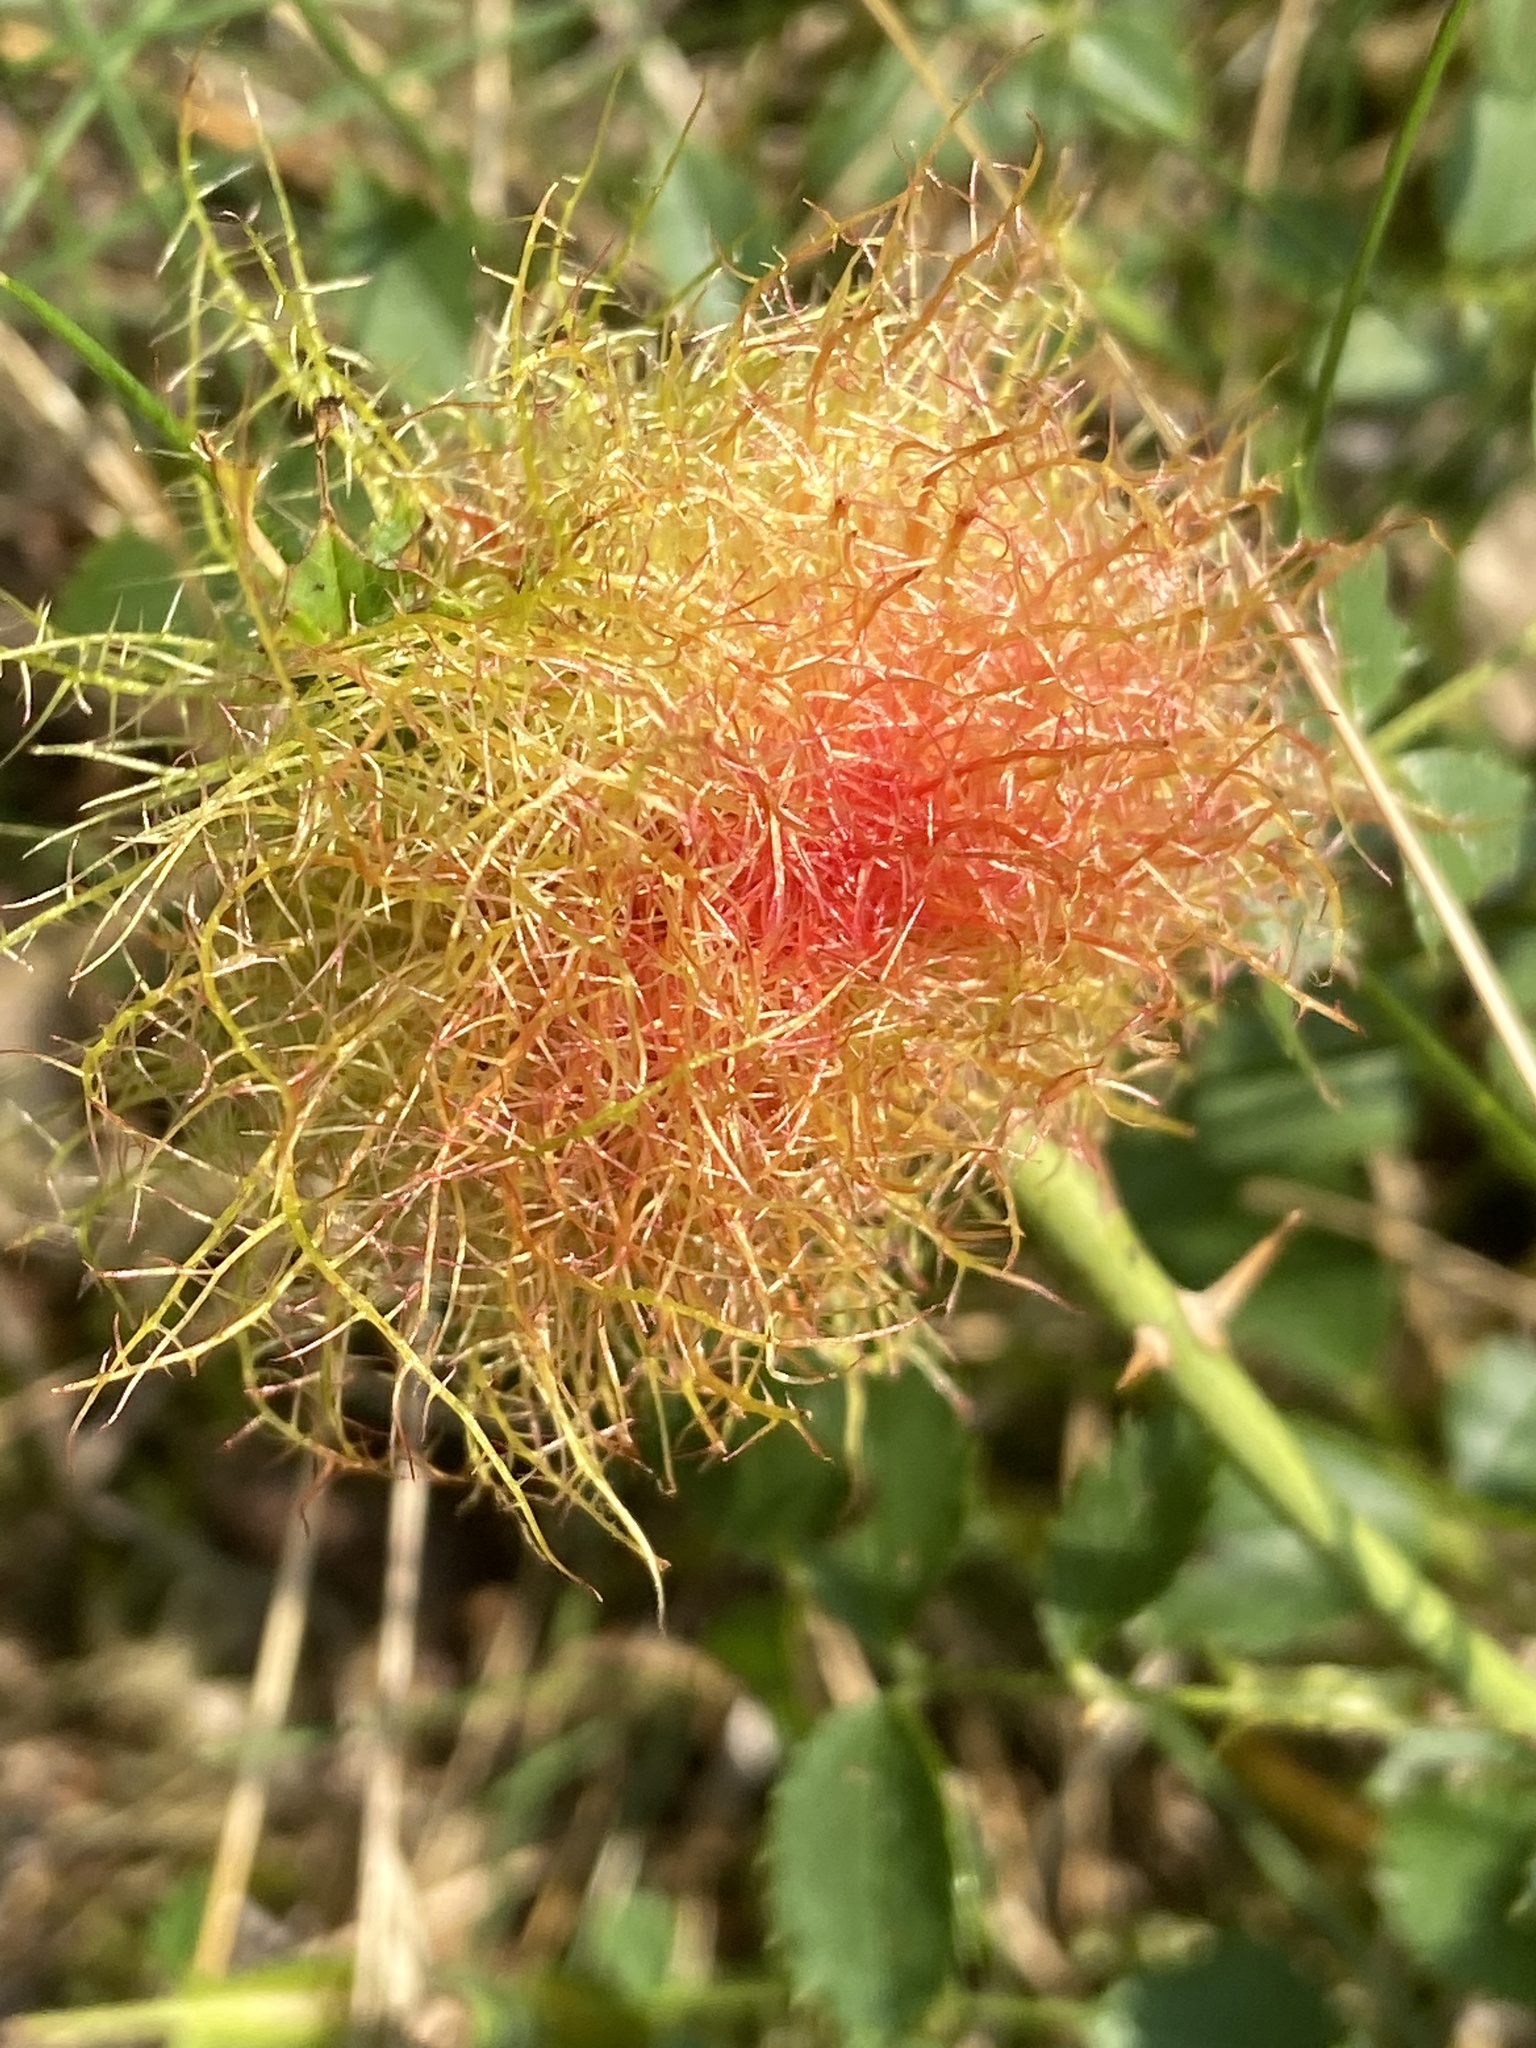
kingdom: Animalia
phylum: Arthropoda
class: Insecta
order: Hymenoptera
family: Cynipidae
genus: Diplolepis
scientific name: Diplolepis rosae
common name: Bedeguar gall
